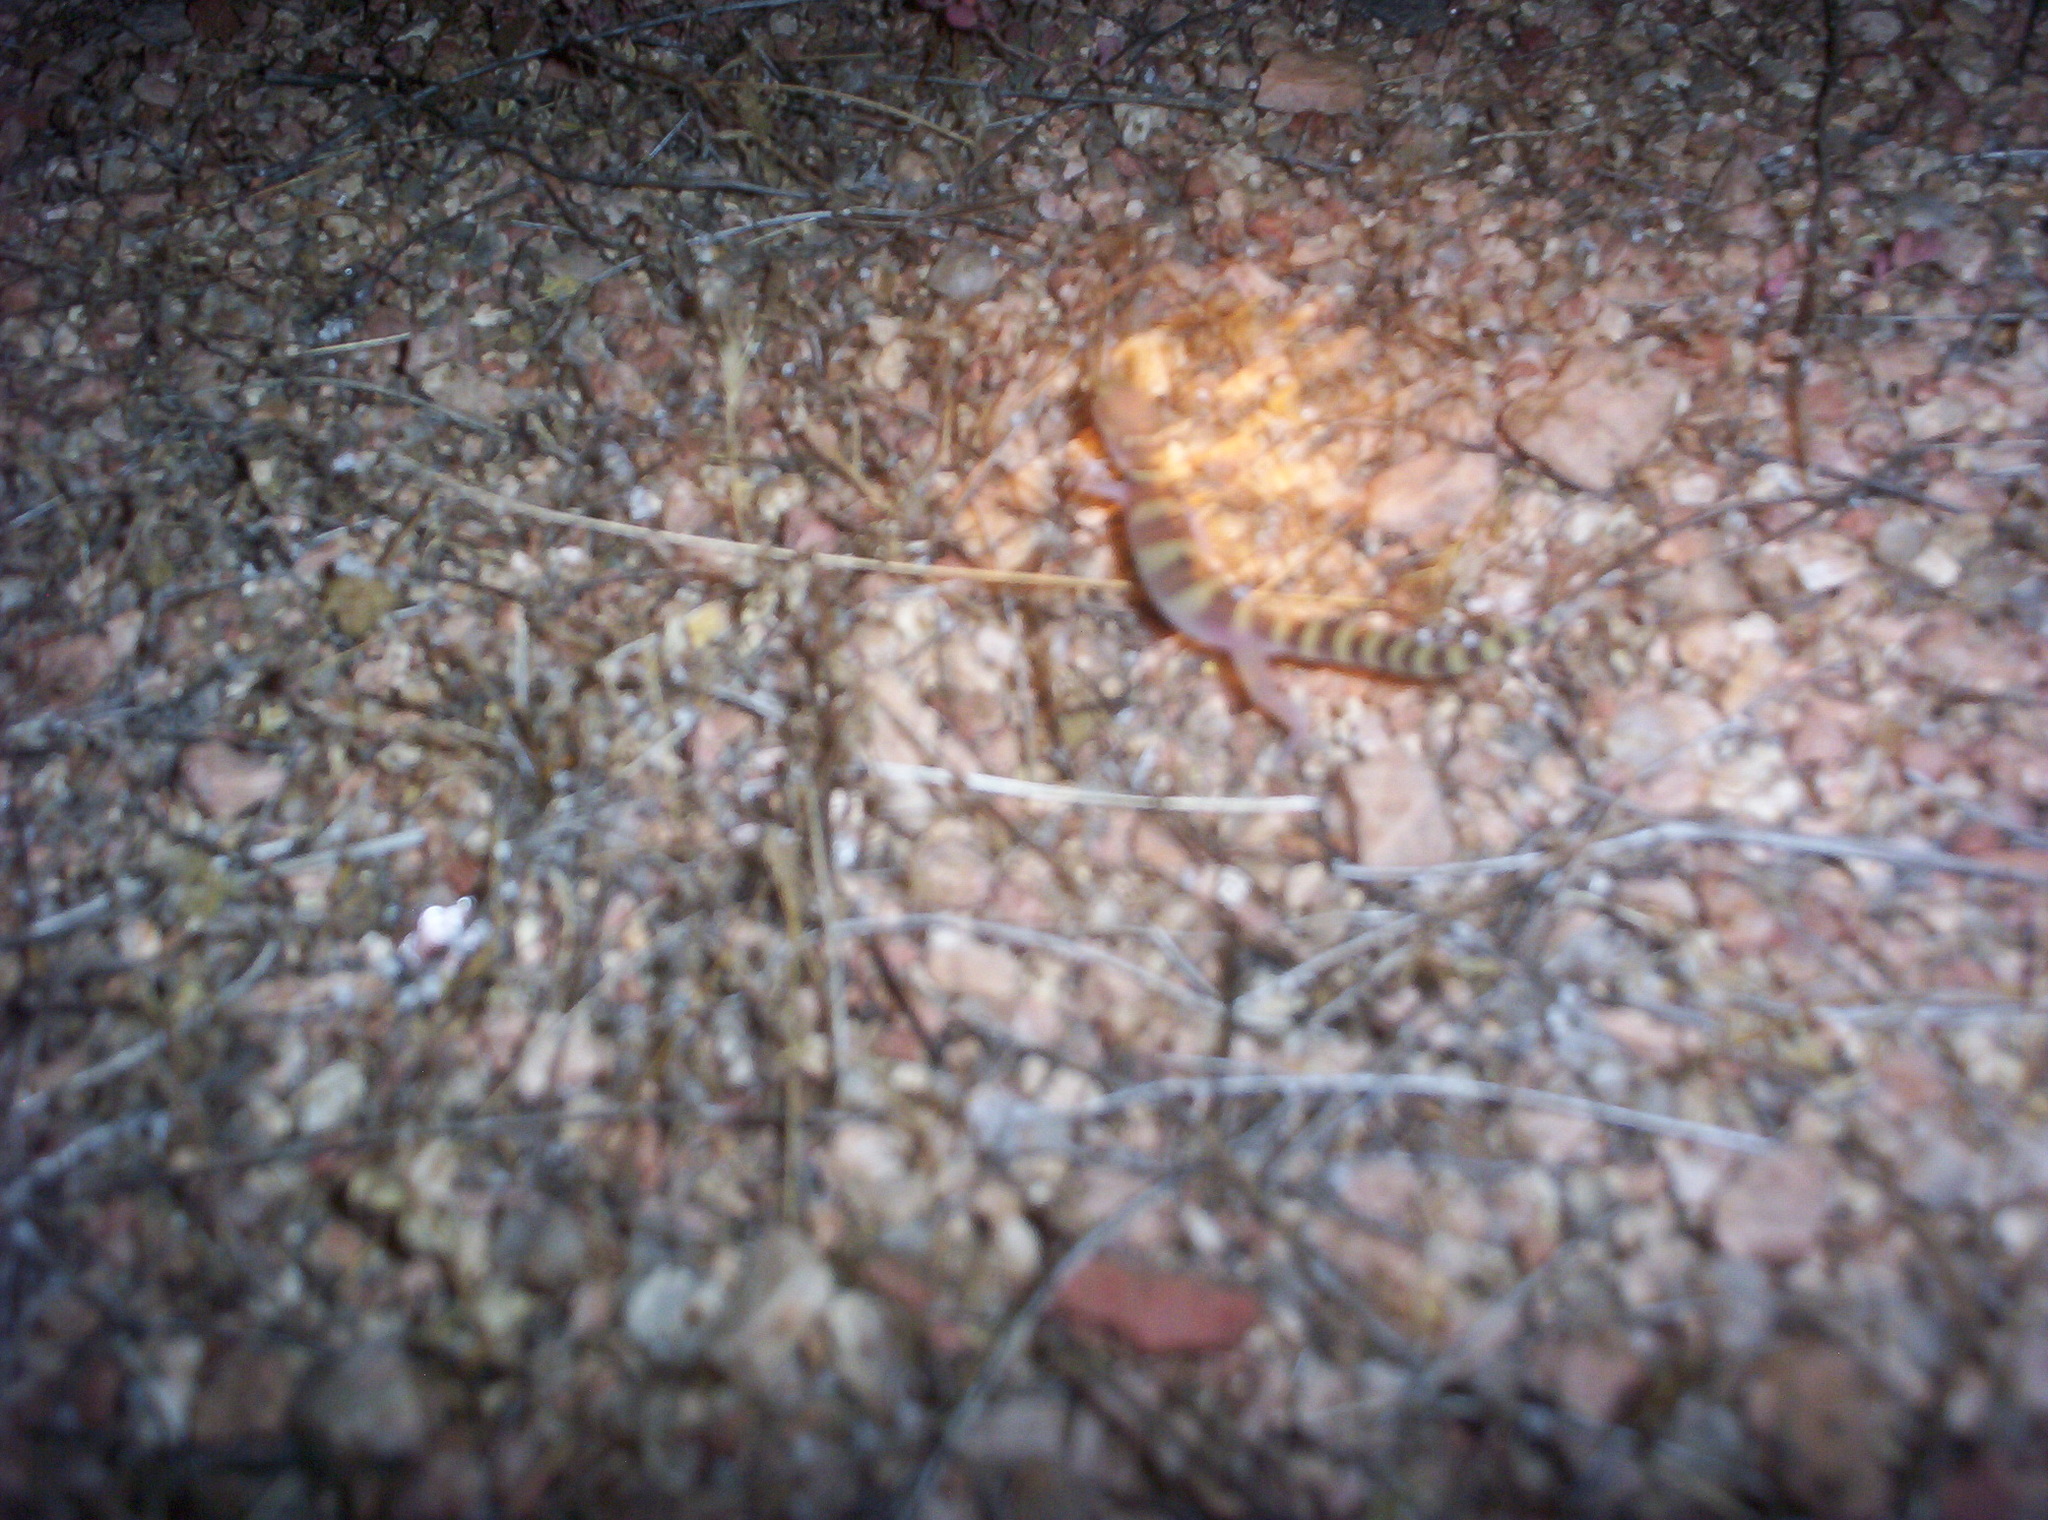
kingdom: Animalia
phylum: Chordata
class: Squamata
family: Eublepharidae
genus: Coleonyx
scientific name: Coleonyx variegatus
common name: Western banded gecko
